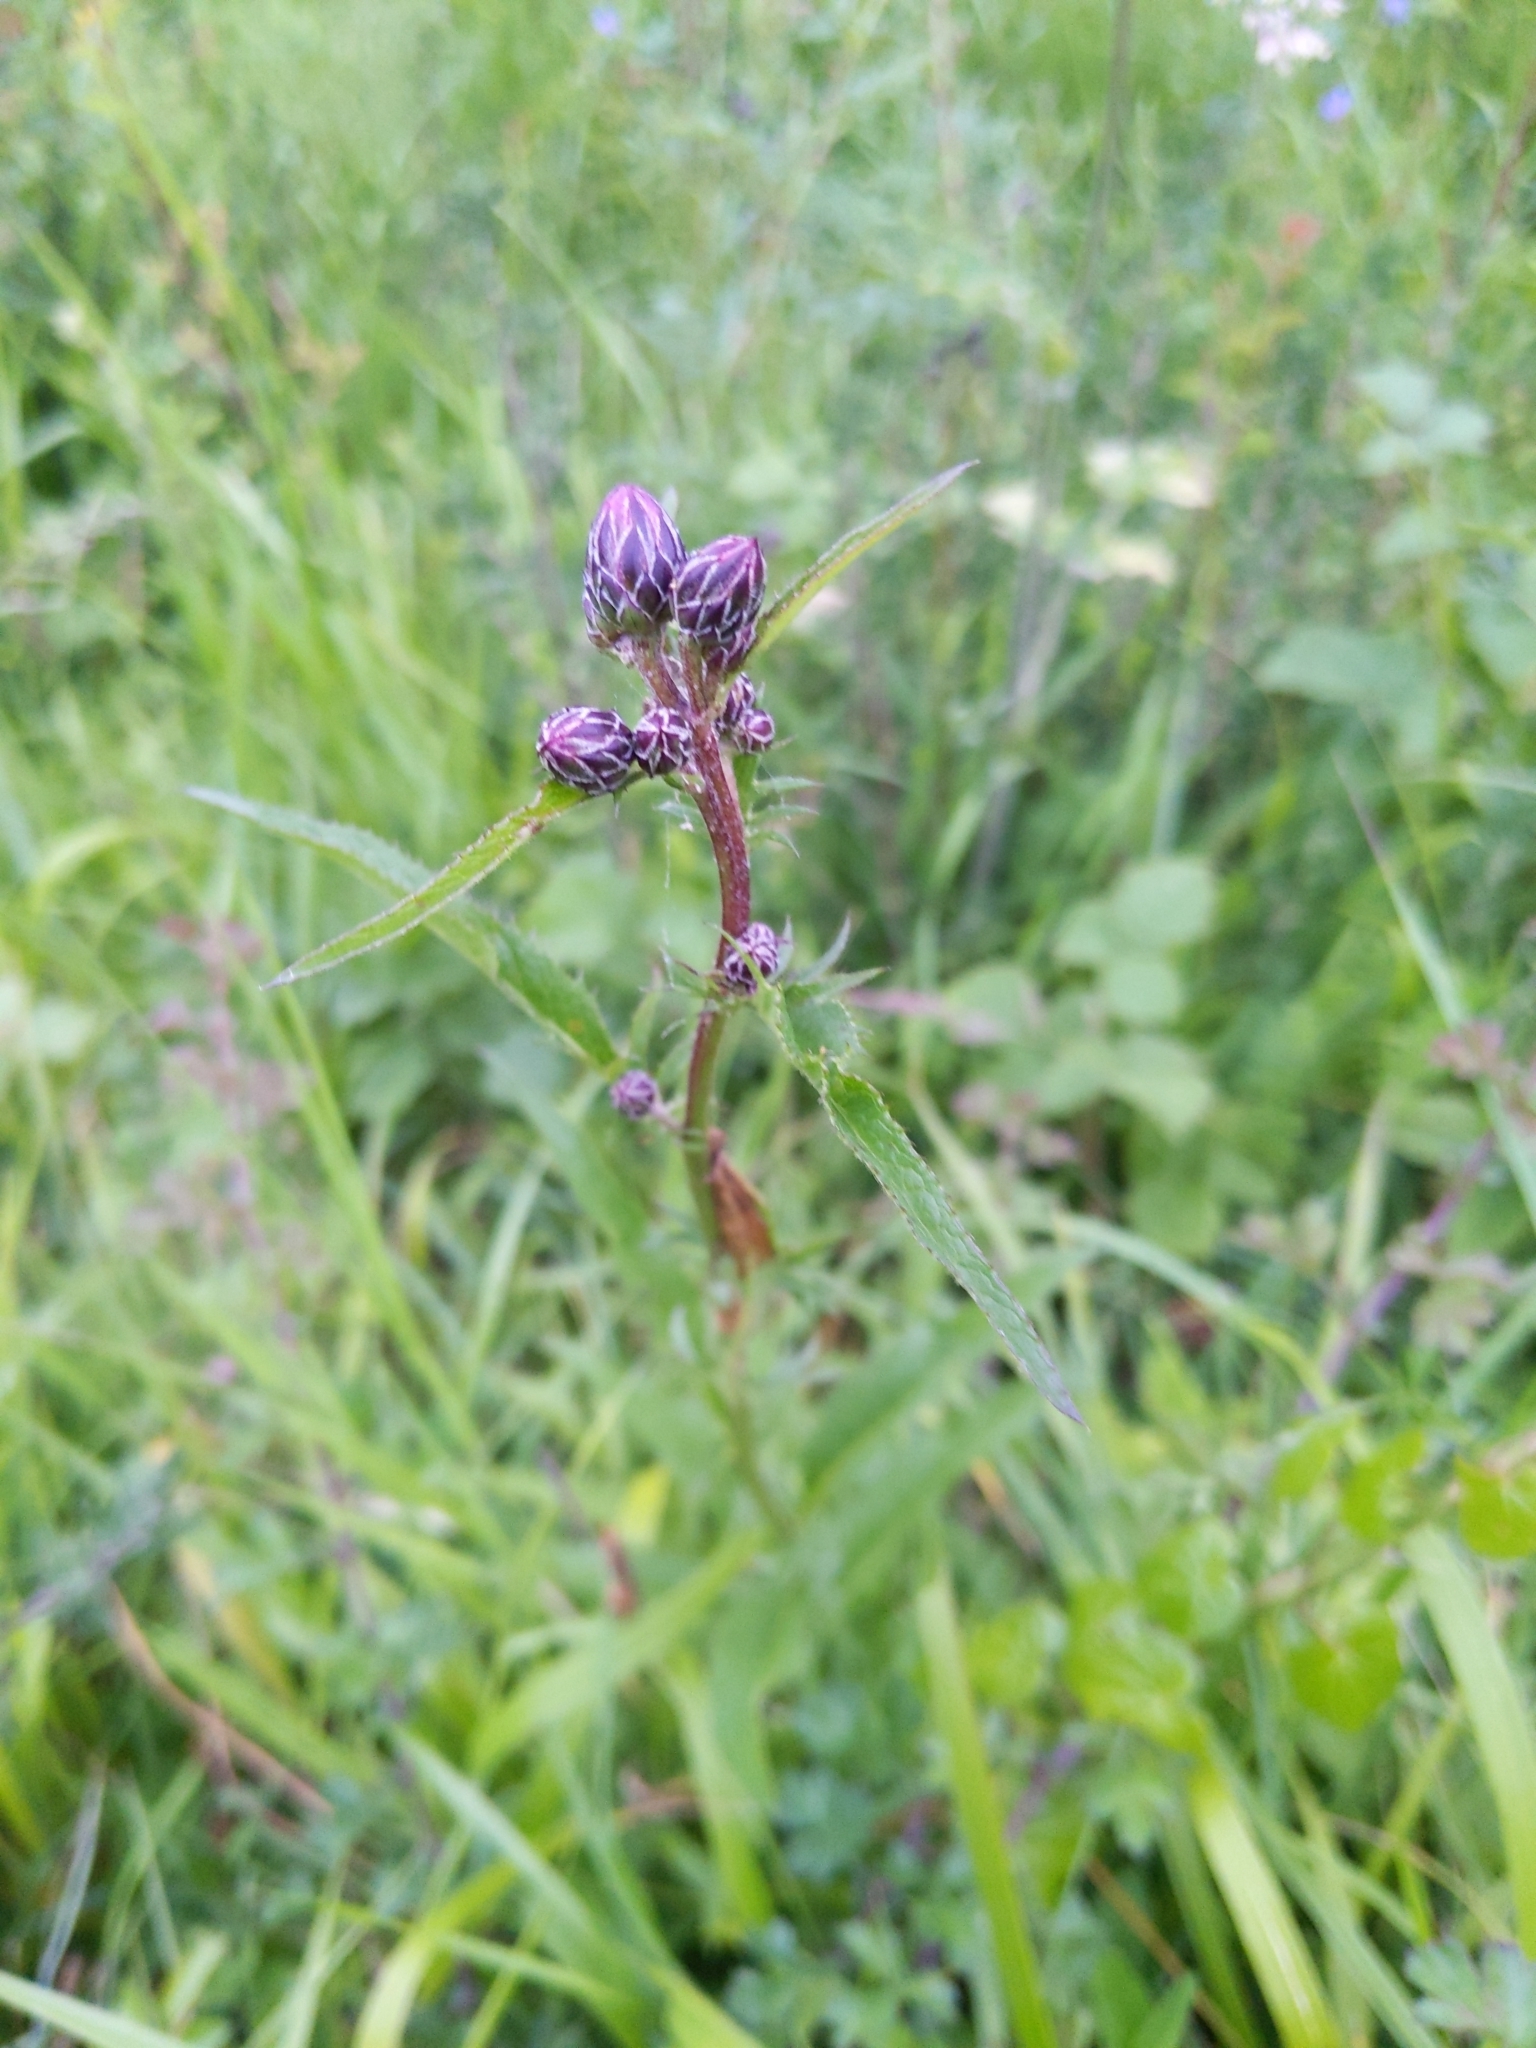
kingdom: Plantae
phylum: Tracheophyta
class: Magnoliopsida
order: Asterales
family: Asteraceae
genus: Serratula
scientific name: Serratula tinctoria
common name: Saw-wort
